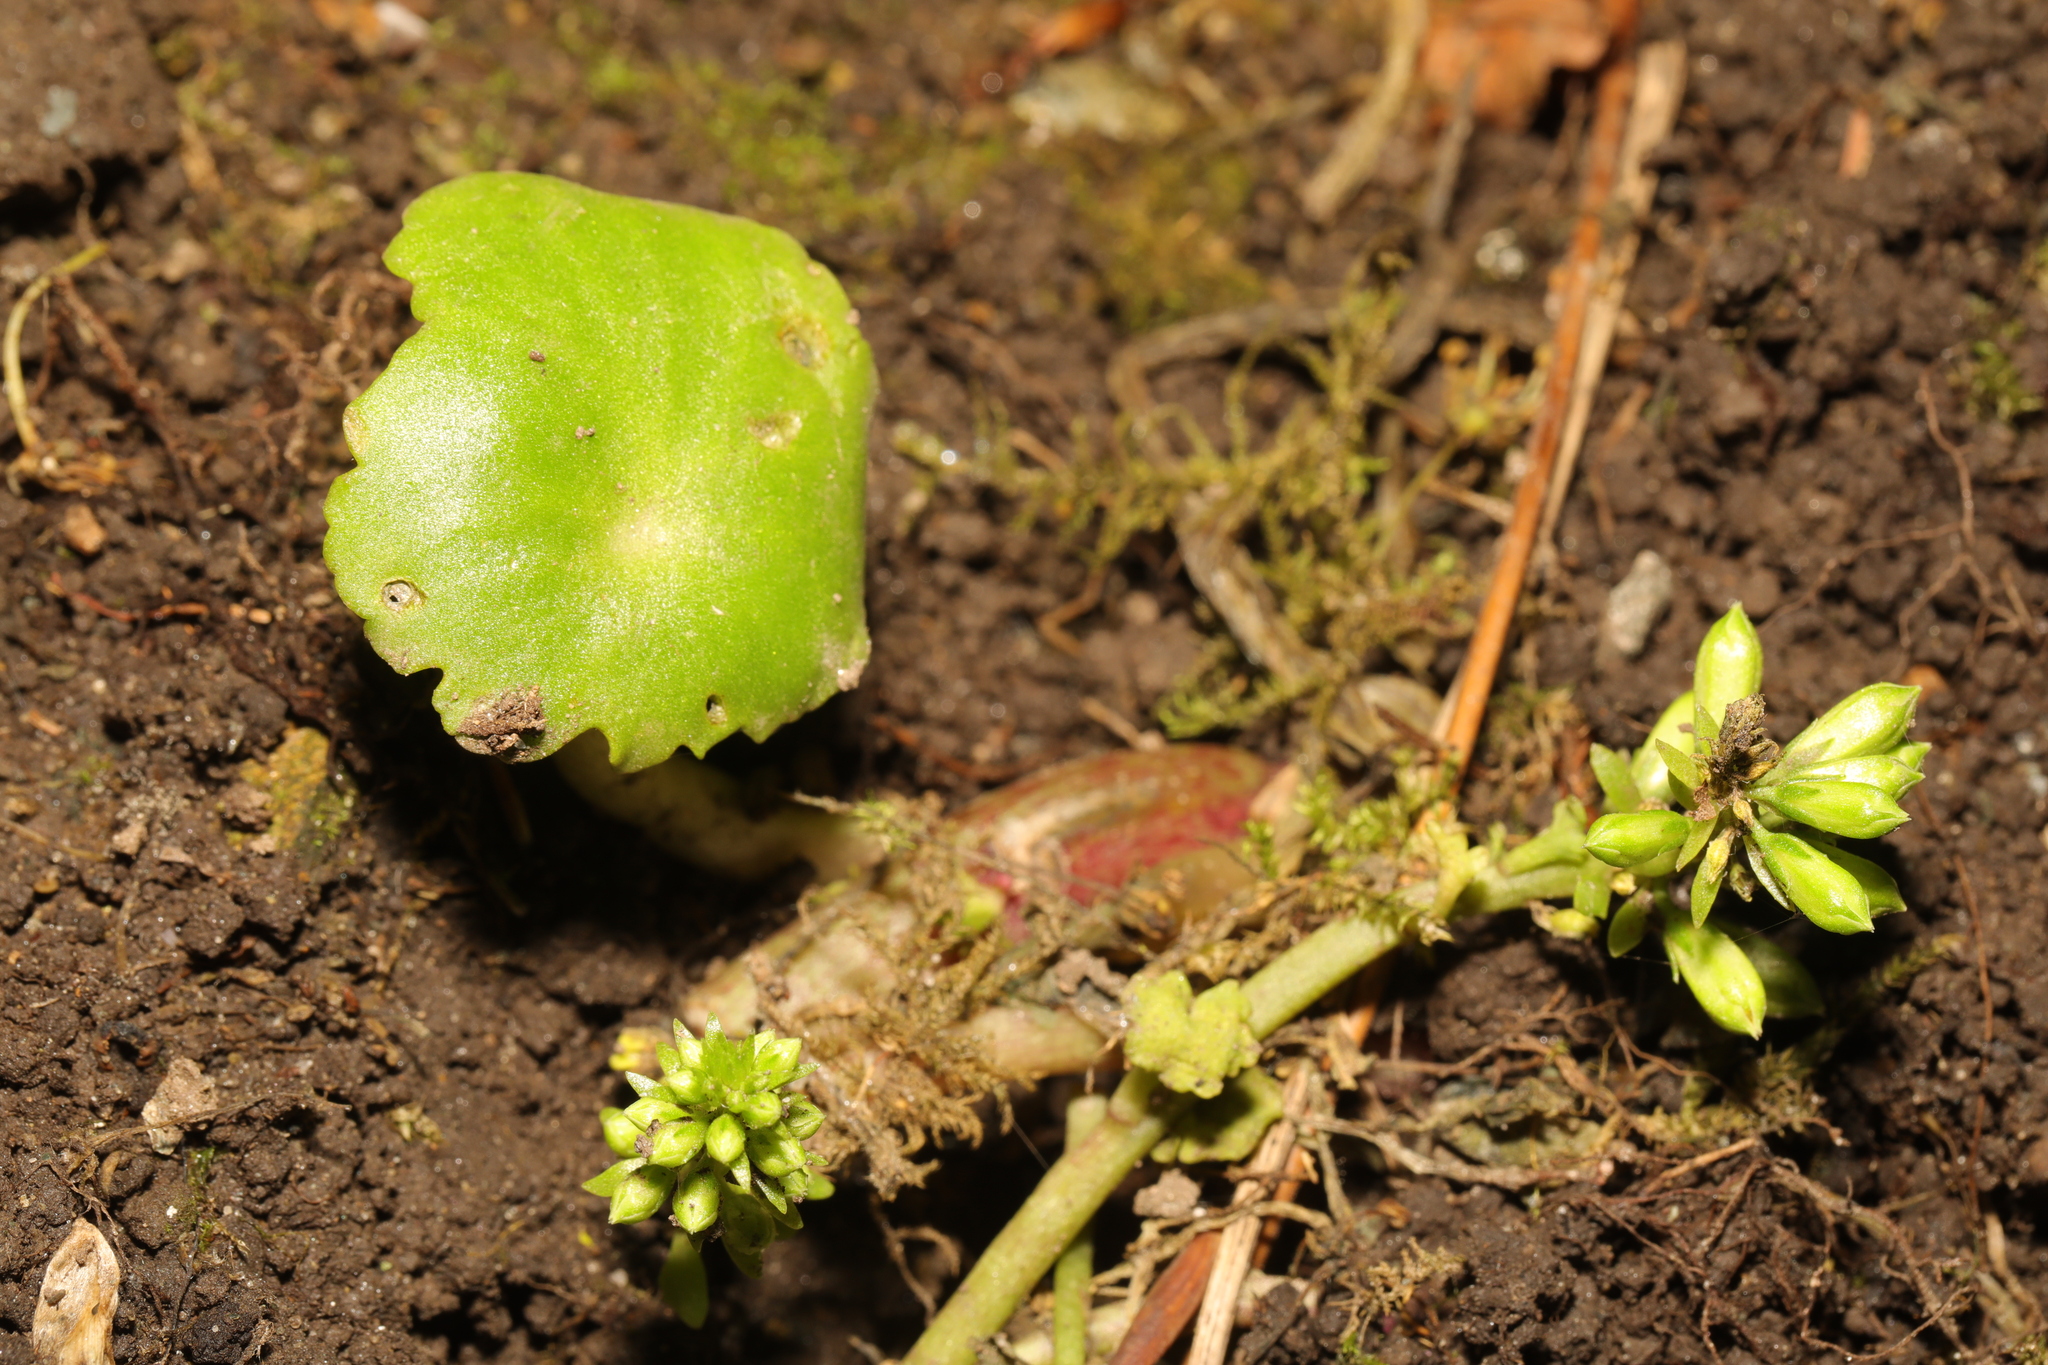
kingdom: Plantae
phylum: Tracheophyta
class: Magnoliopsida
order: Saxifragales
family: Crassulaceae
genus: Umbilicus
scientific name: Umbilicus rupestris
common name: Navelwort
